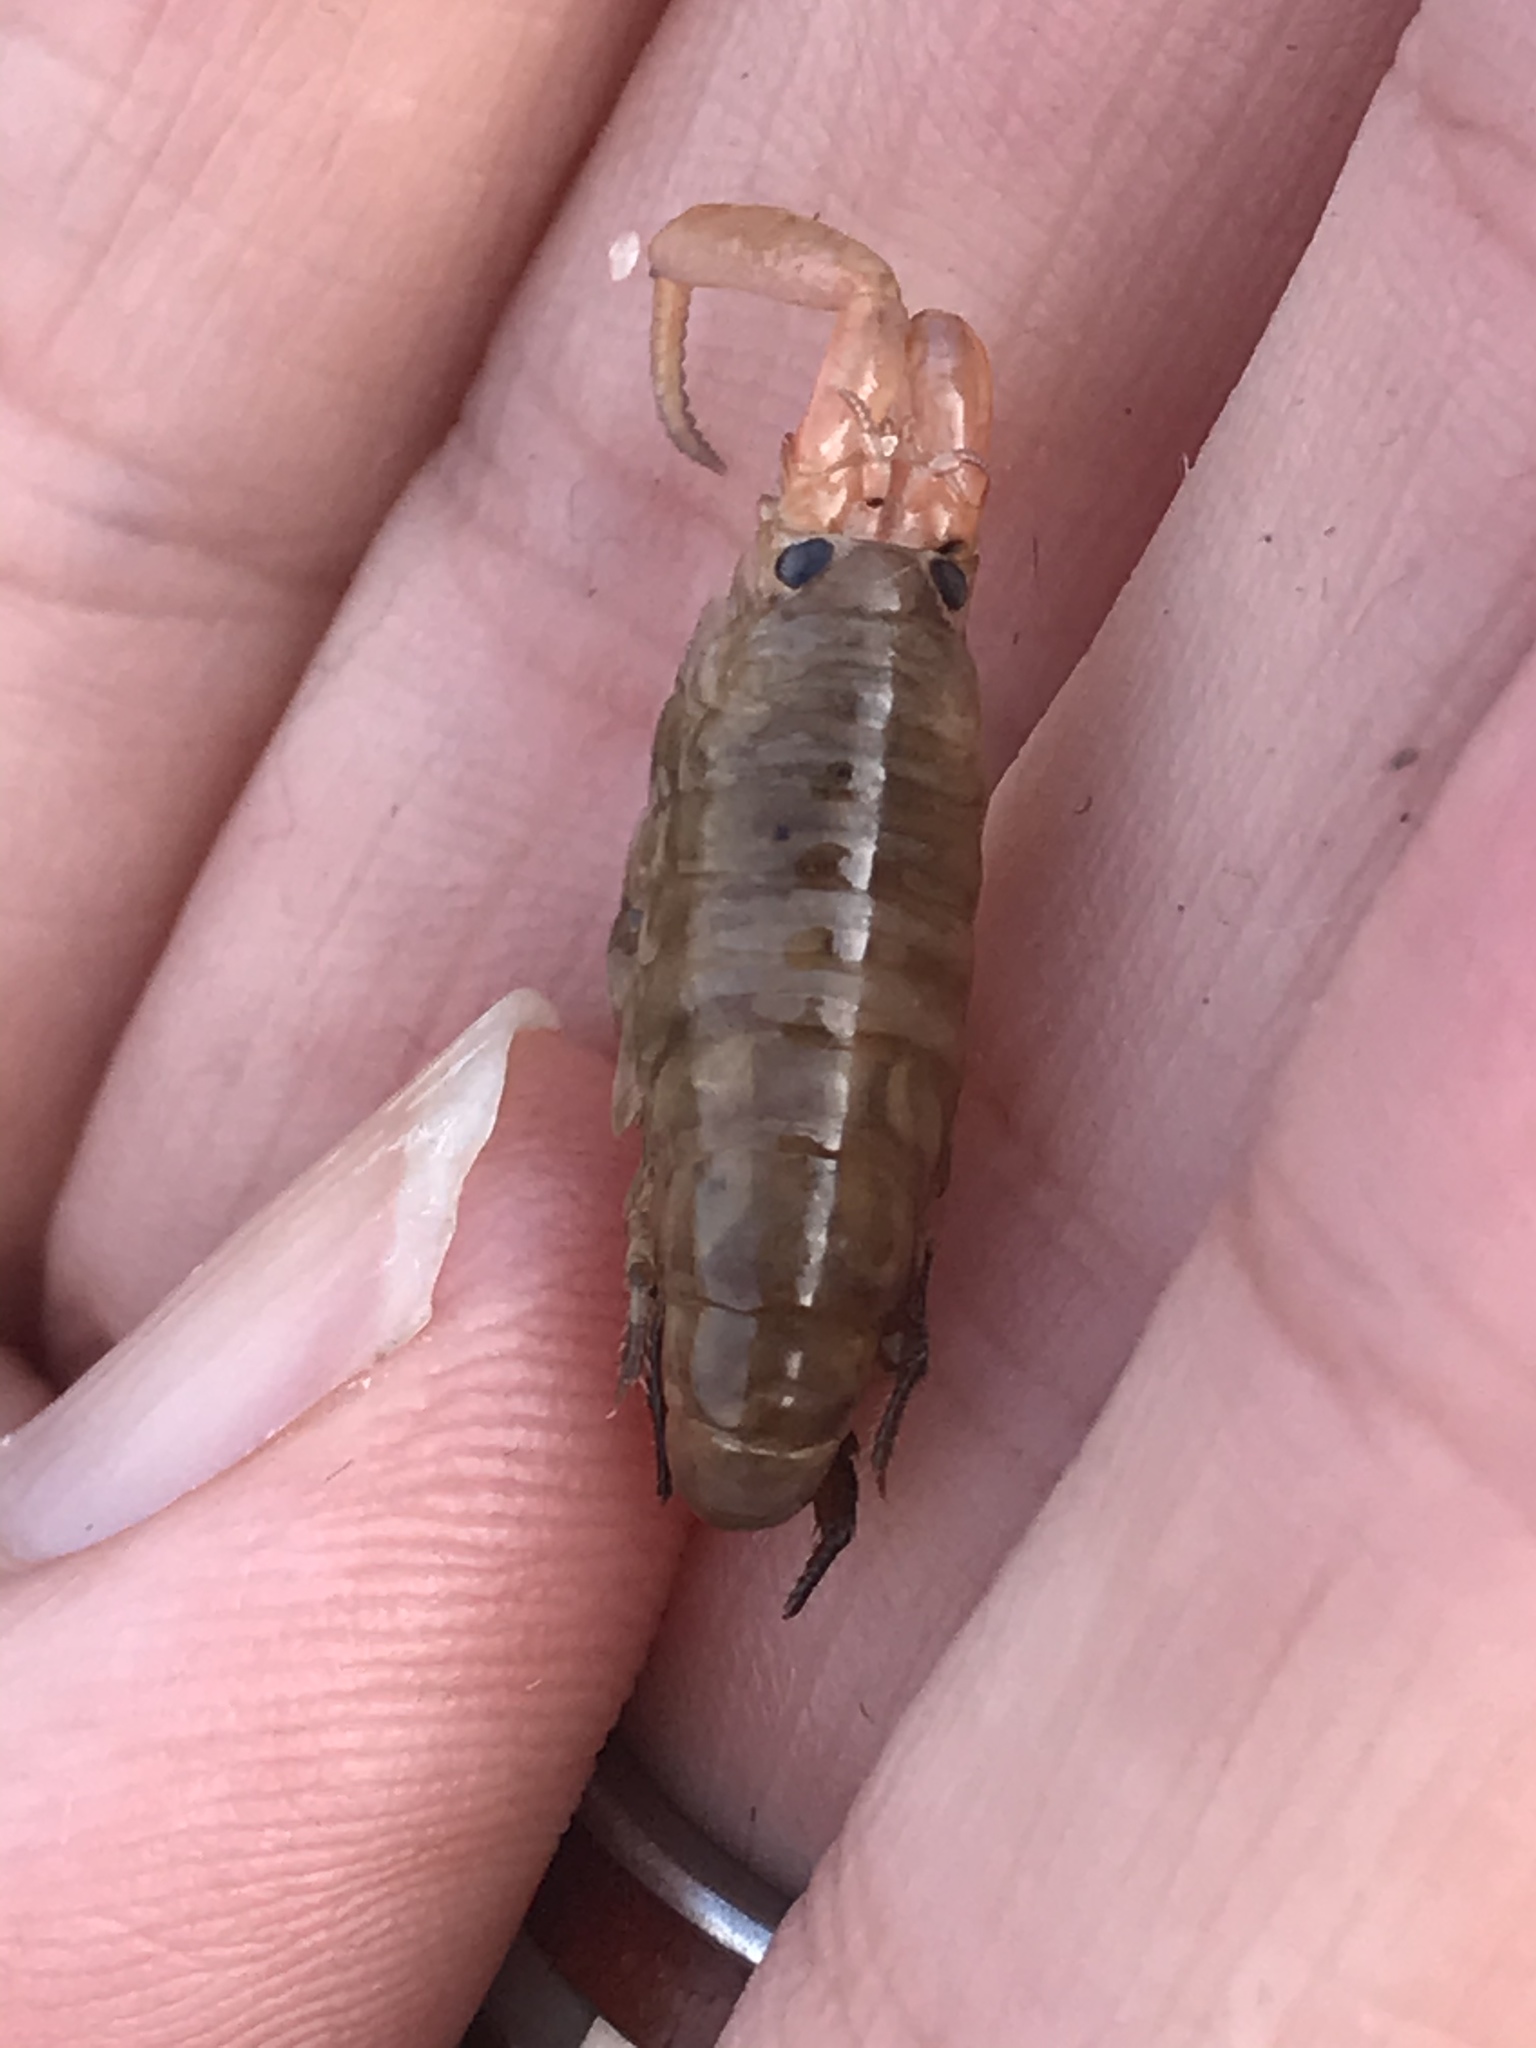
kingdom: Animalia
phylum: Arthropoda
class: Malacostraca
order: Amphipoda
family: Talitridae
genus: Megalorchestia
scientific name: Megalorchestia corniculata
